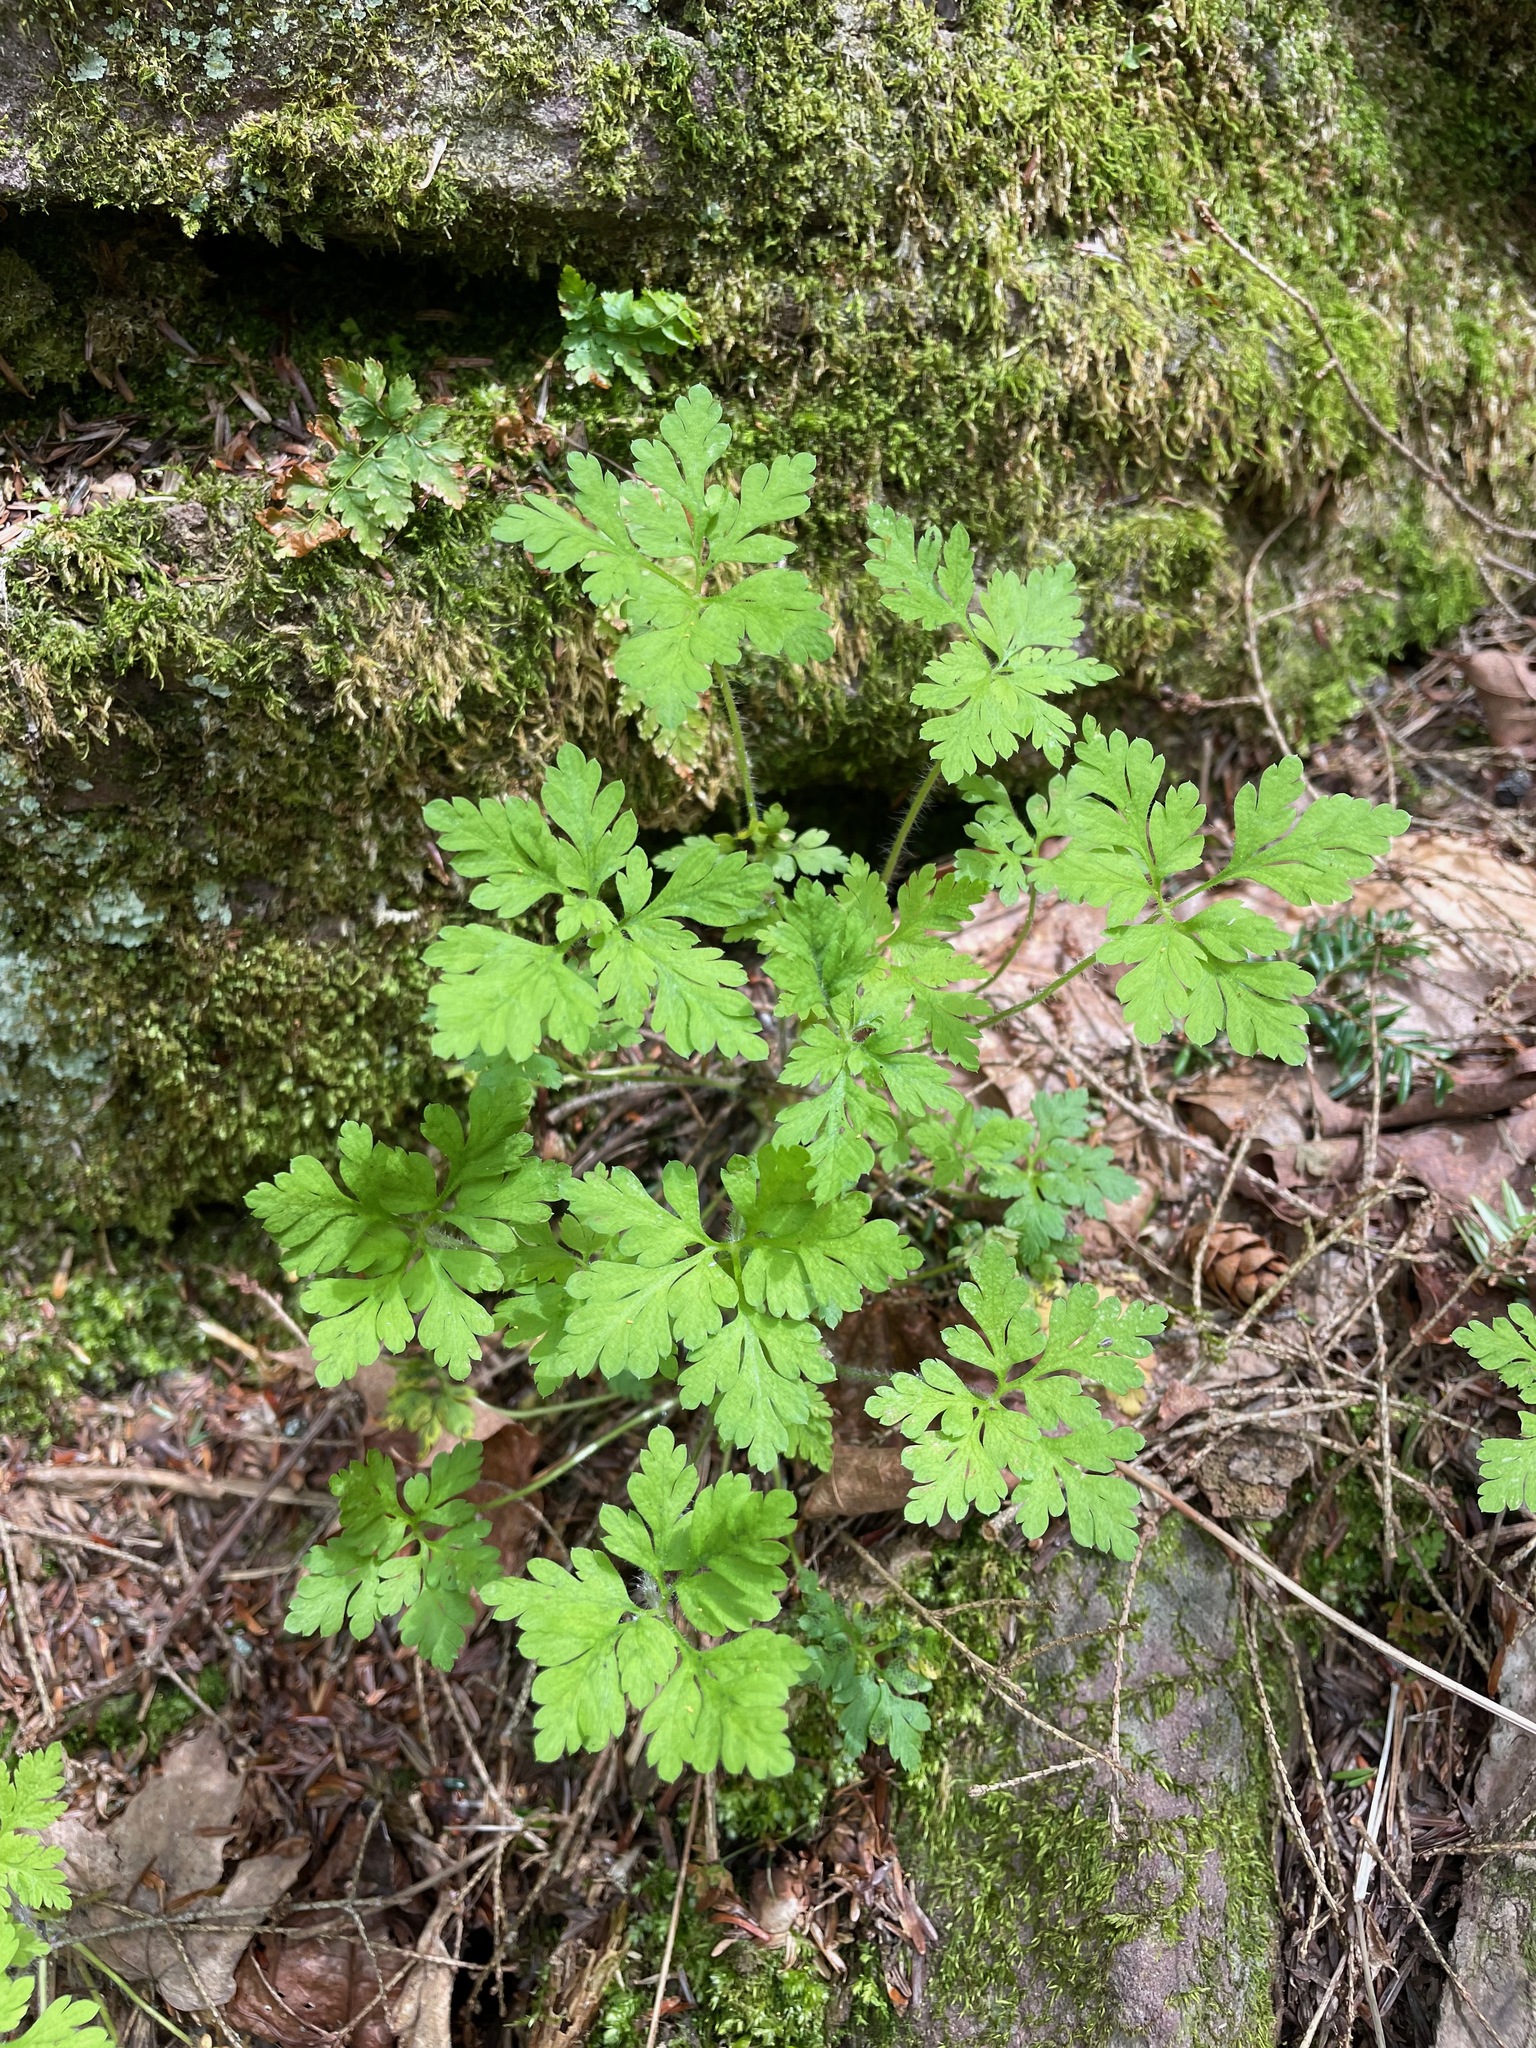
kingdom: Plantae
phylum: Tracheophyta
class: Magnoliopsida
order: Geraniales
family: Geraniaceae
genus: Geranium
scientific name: Geranium robertianum
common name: Herb-robert
